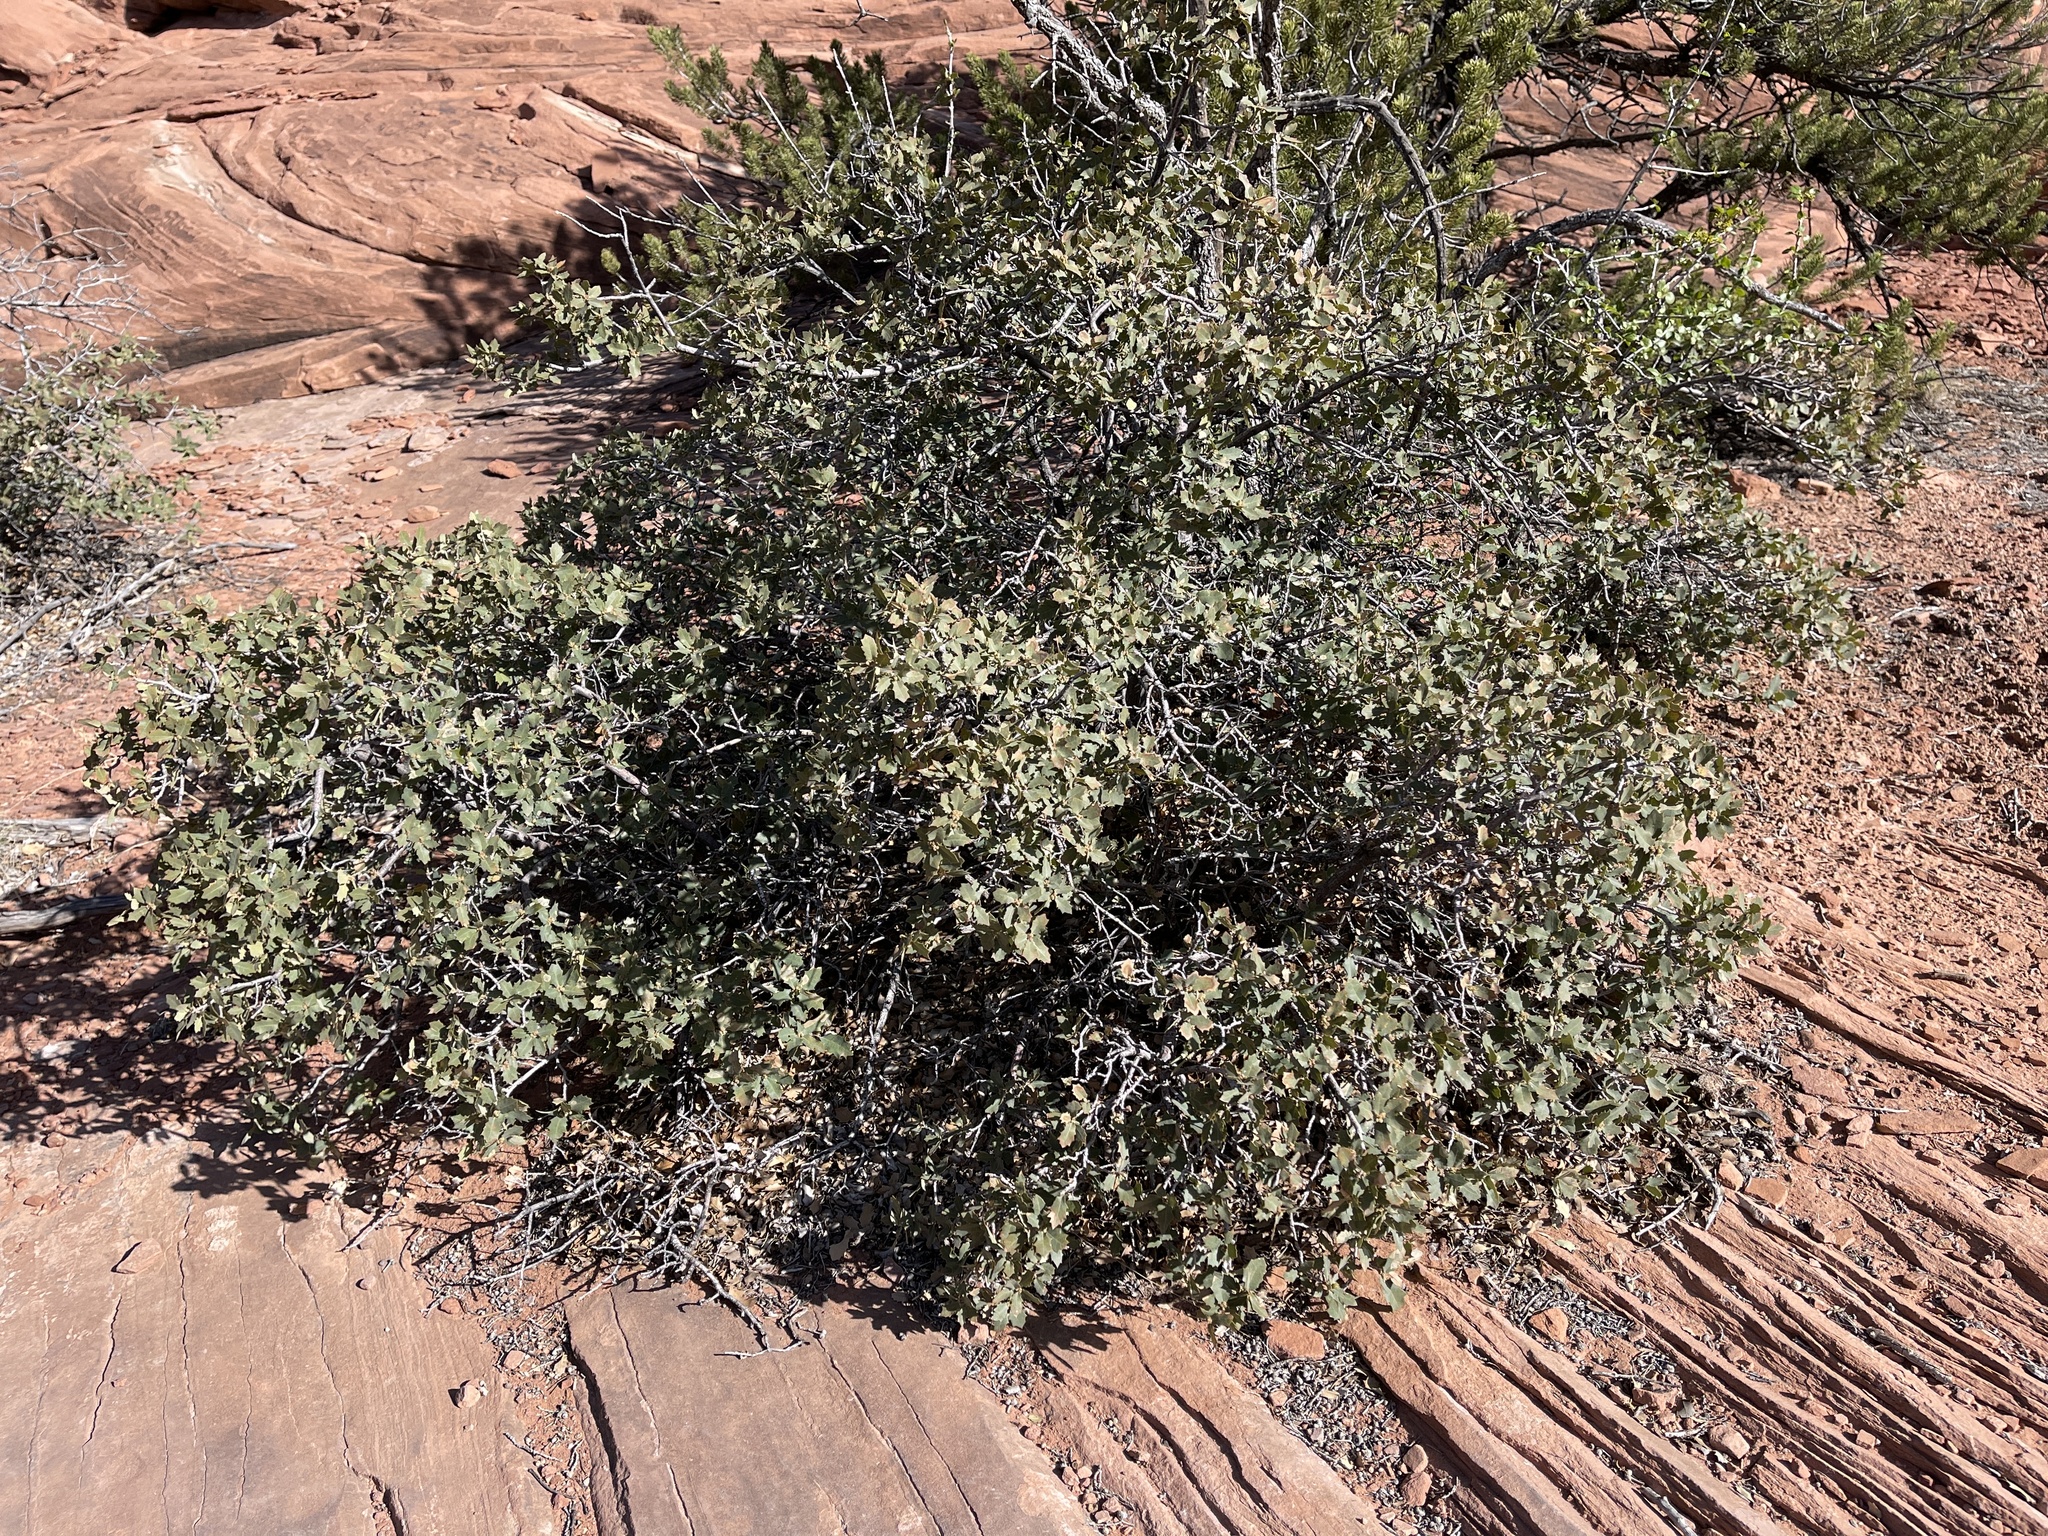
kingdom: Plantae
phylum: Tracheophyta
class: Magnoliopsida
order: Fagales
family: Fagaceae
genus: Quercus
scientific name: Quercus turbinella
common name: Sonoran scrub oak
